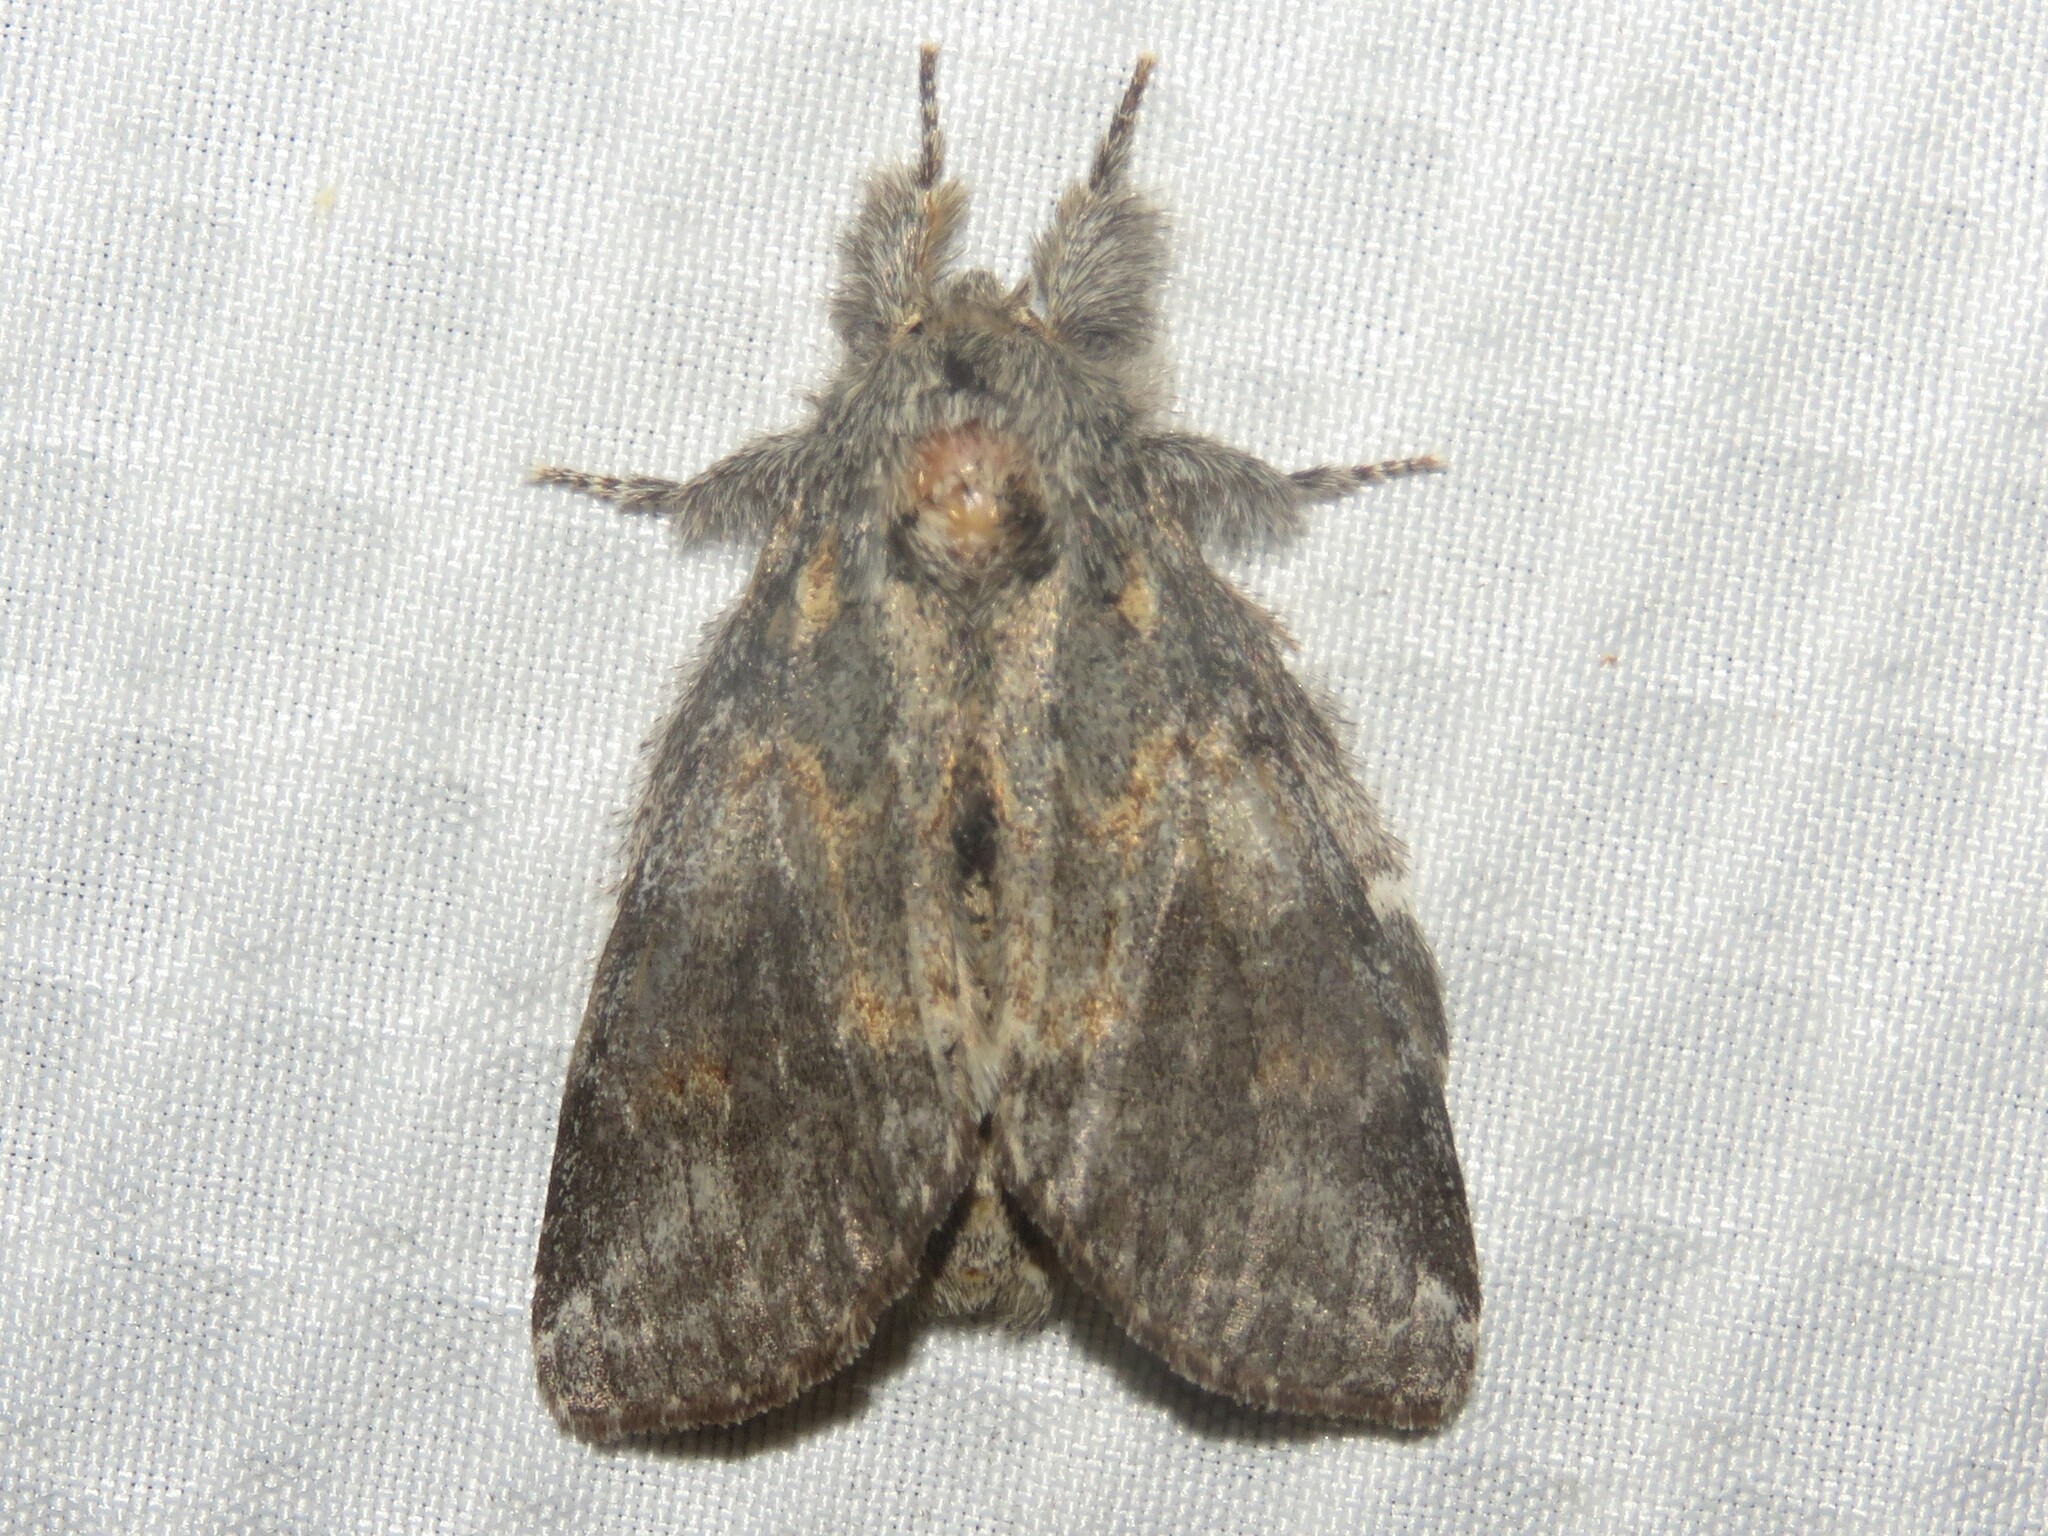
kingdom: Animalia
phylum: Arthropoda
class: Insecta
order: Lepidoptera
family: Notodontidae
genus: Peridea
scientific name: Peridea angulosa
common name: Angulose prominent
